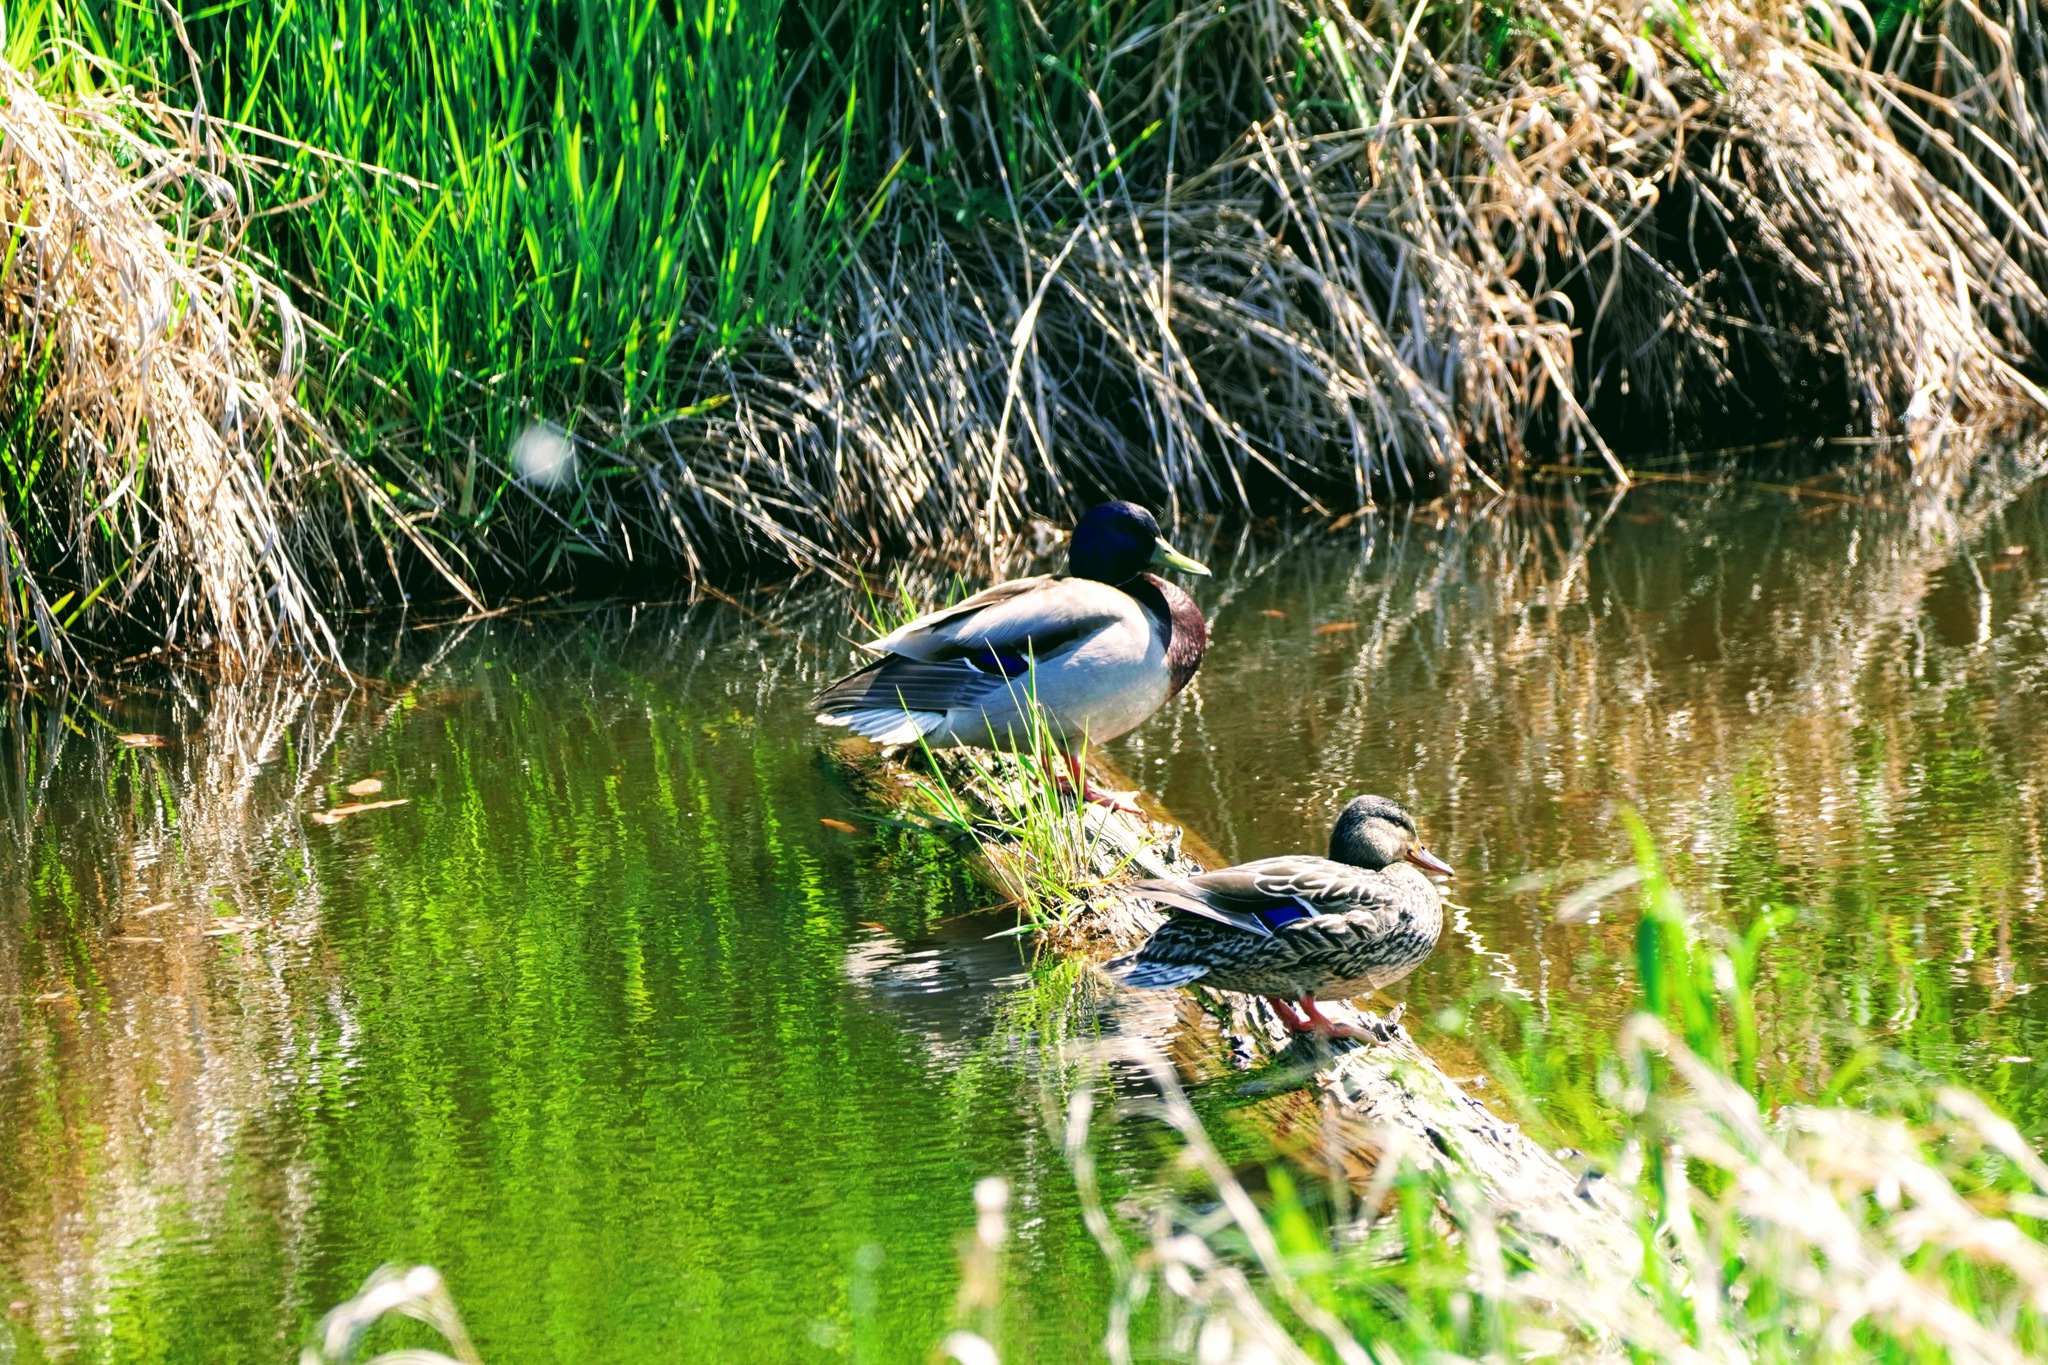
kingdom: Animalia
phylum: Chordata
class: Aves
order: Anseriformes
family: Anatidae
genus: Anas
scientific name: Anas platyrhynchos
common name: Mallard
